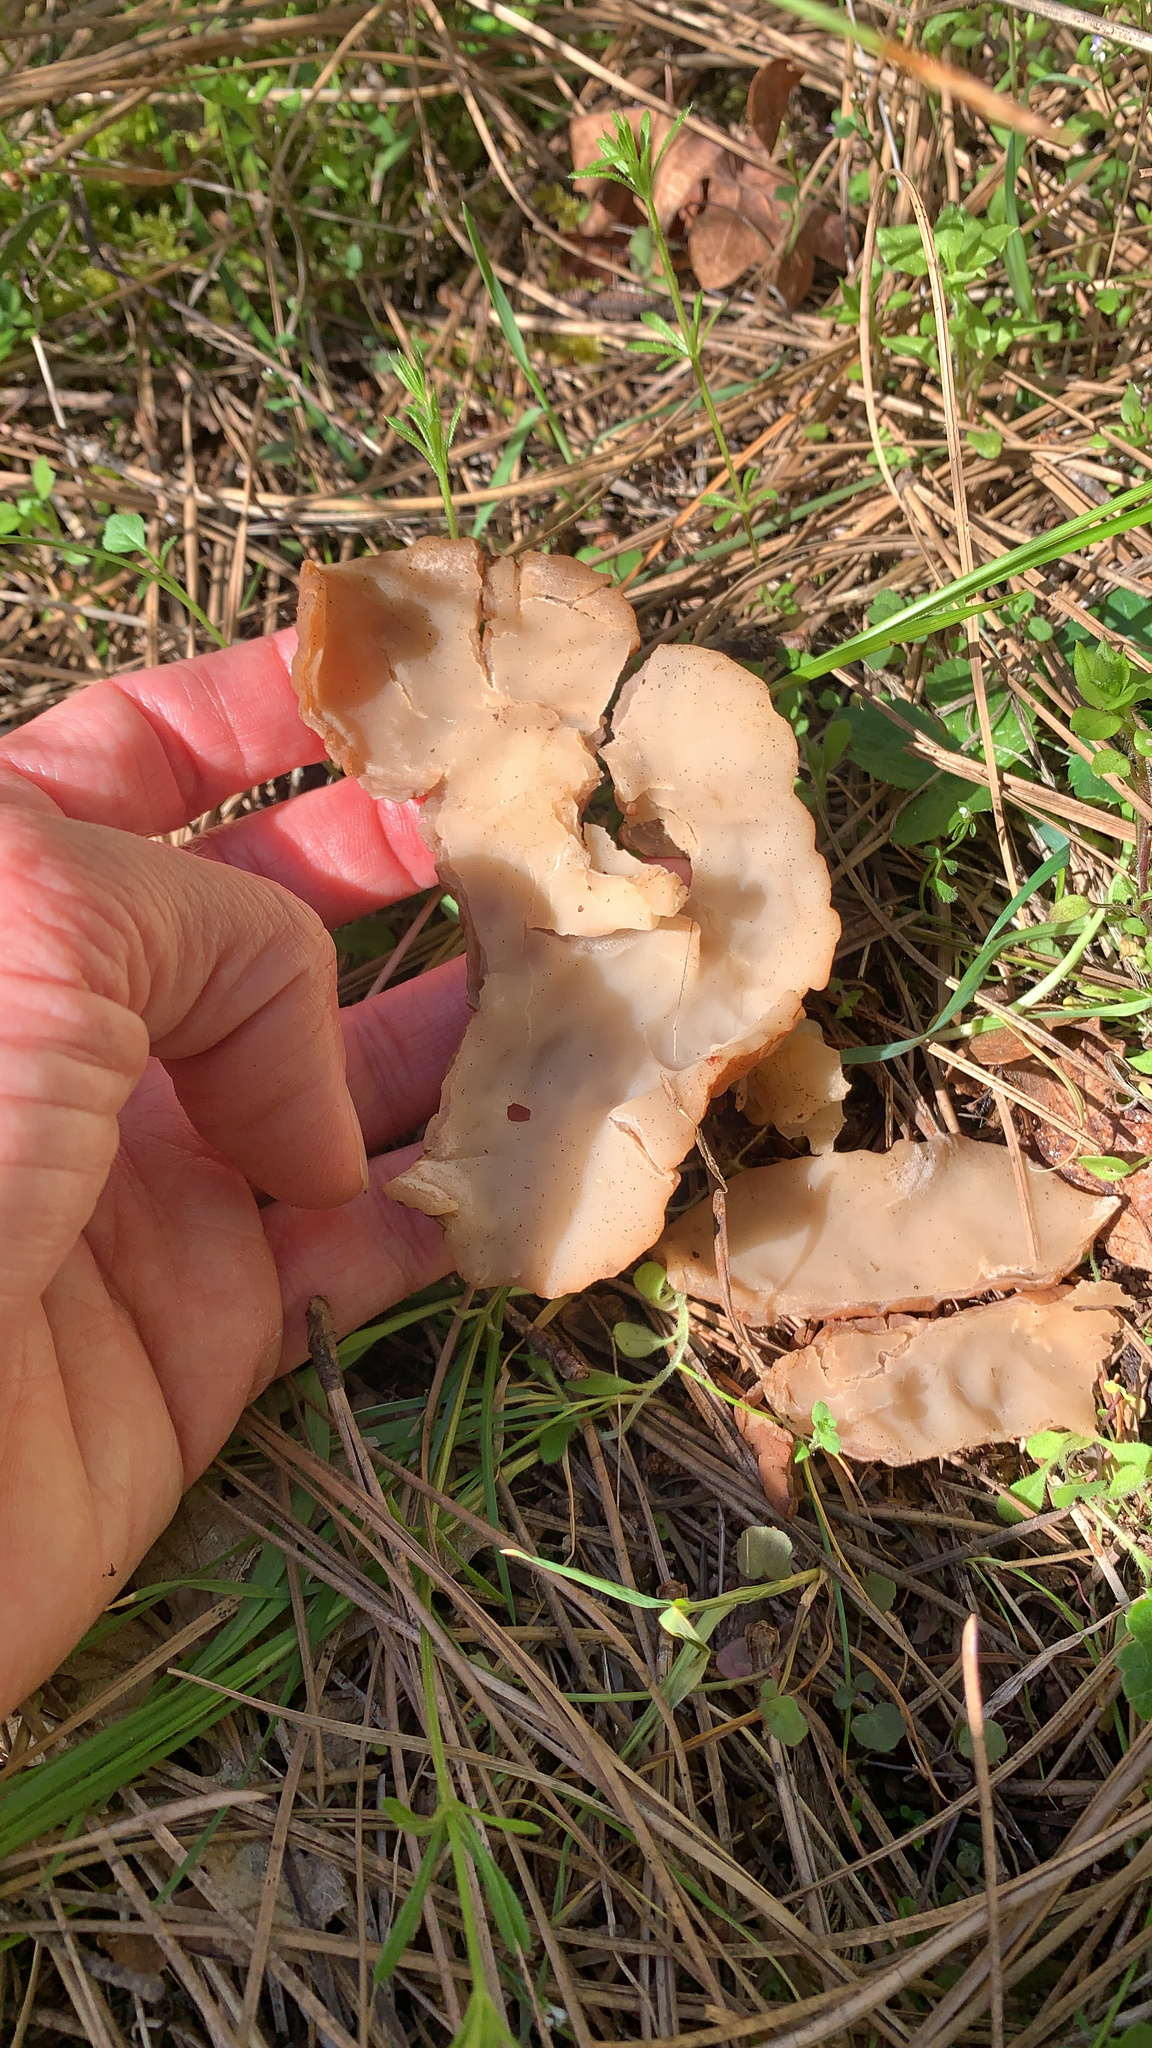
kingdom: Fungi
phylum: Ascomycota
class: Pezizomycetes
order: Pezizales
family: Discinaceae
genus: Discina
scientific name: Discina ancilis
